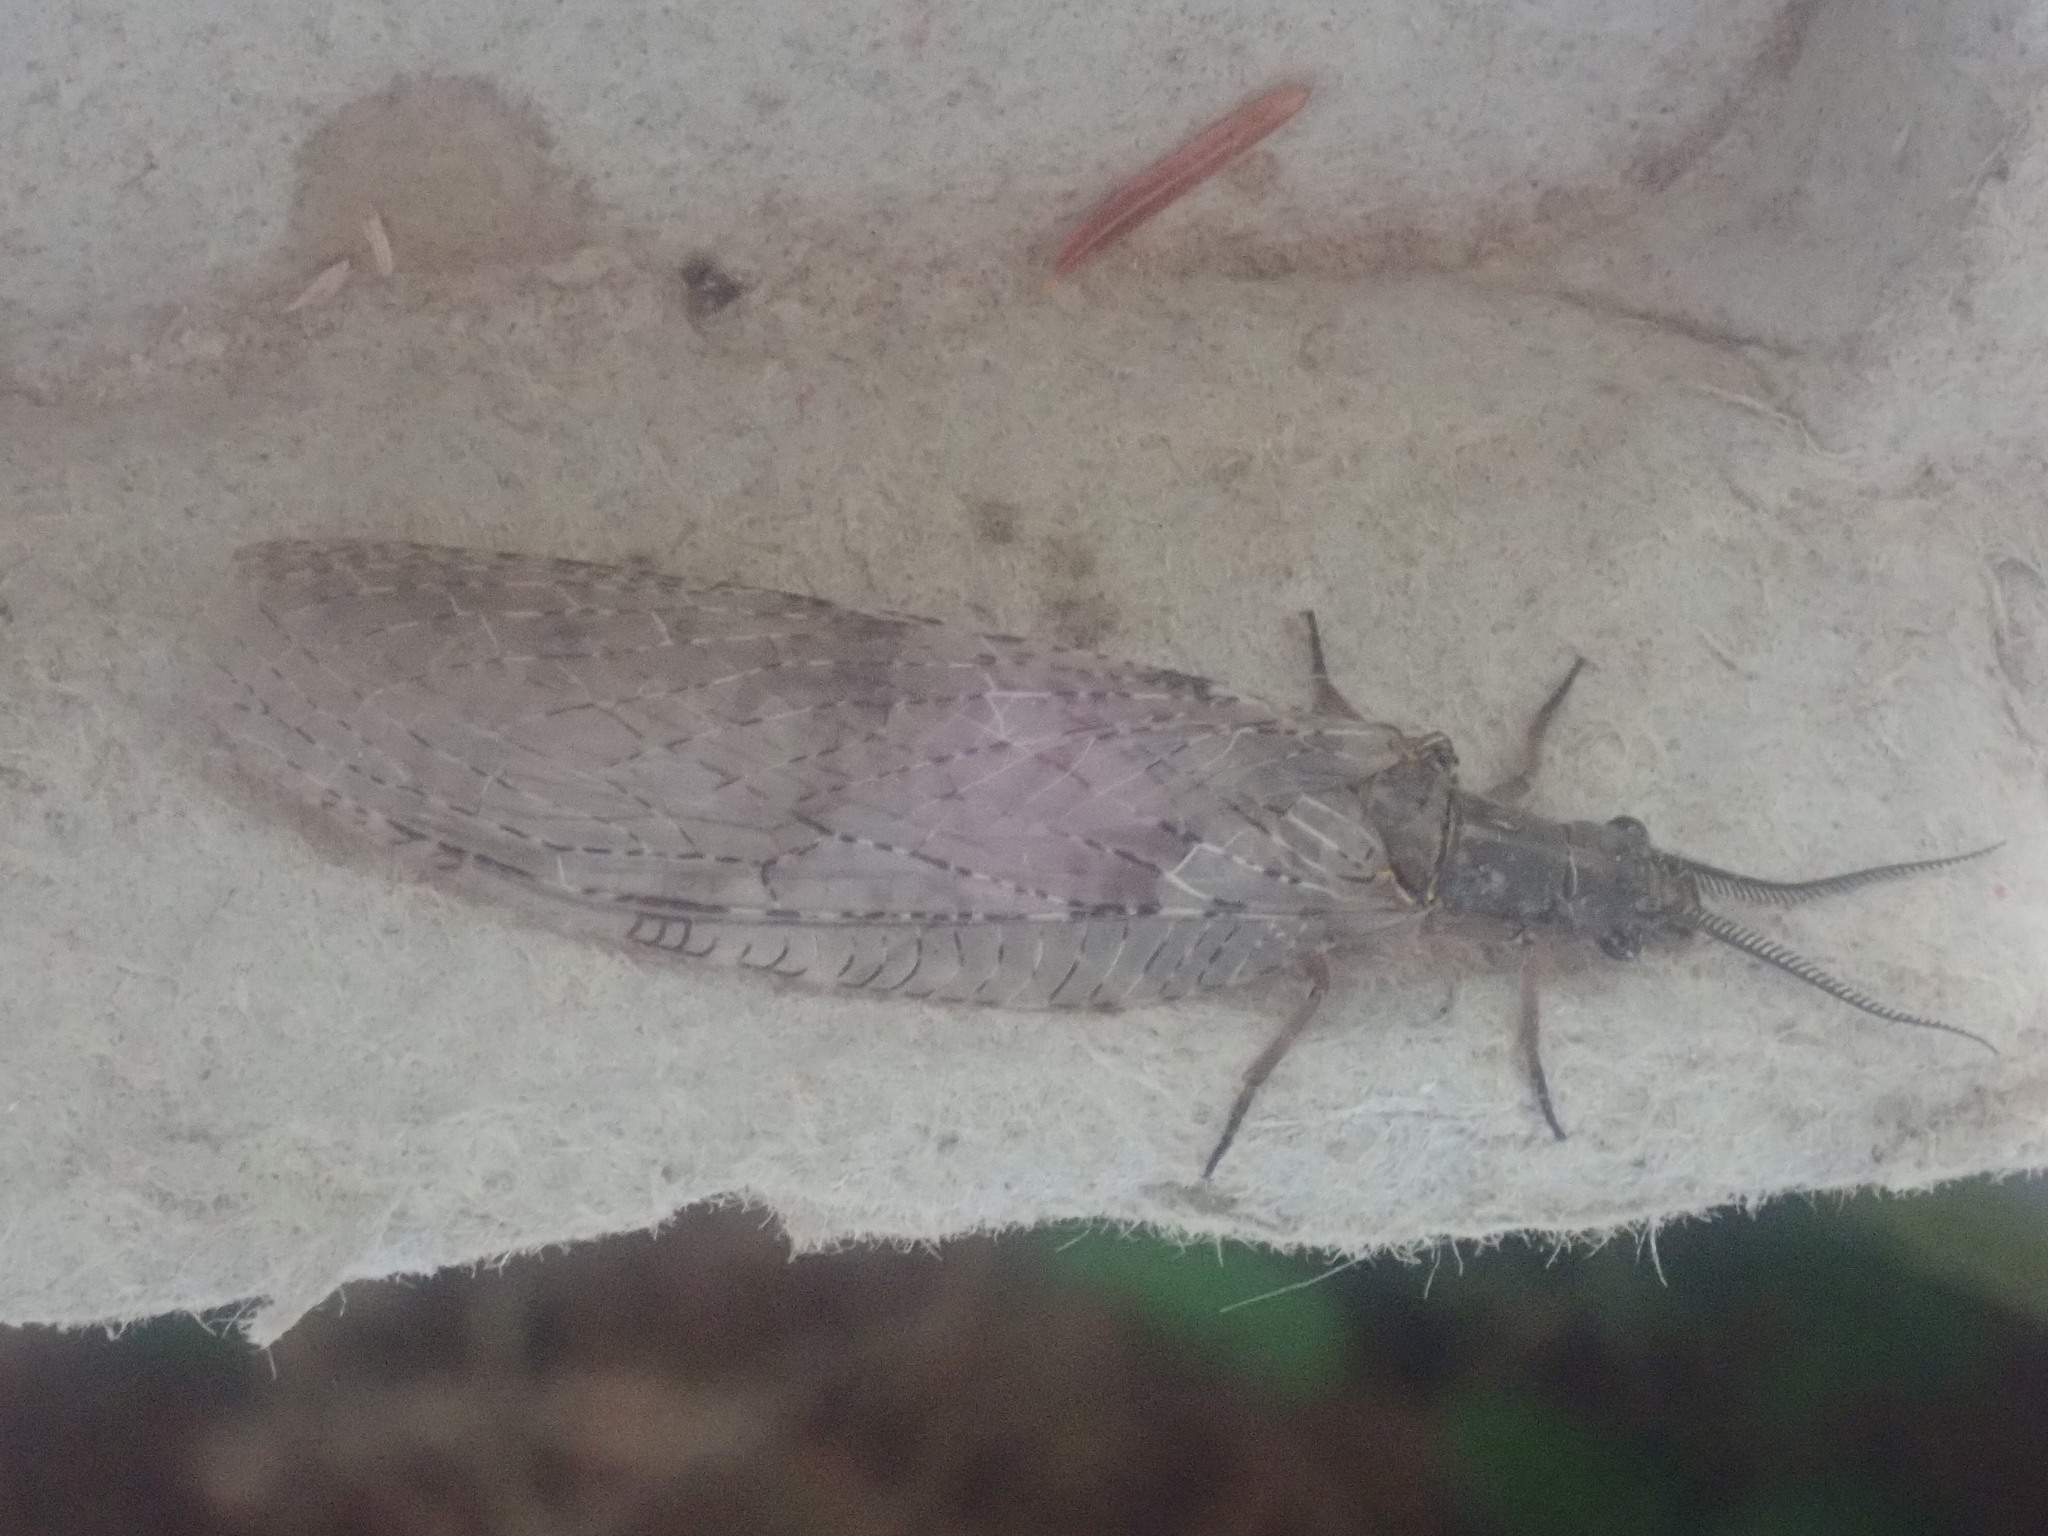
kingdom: Animalia
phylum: Arthropoda
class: Insecta
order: Megaloptera
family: Corydalidae
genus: Chauliodes
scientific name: Chauliodes pectinicornis
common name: Summer fishfly
